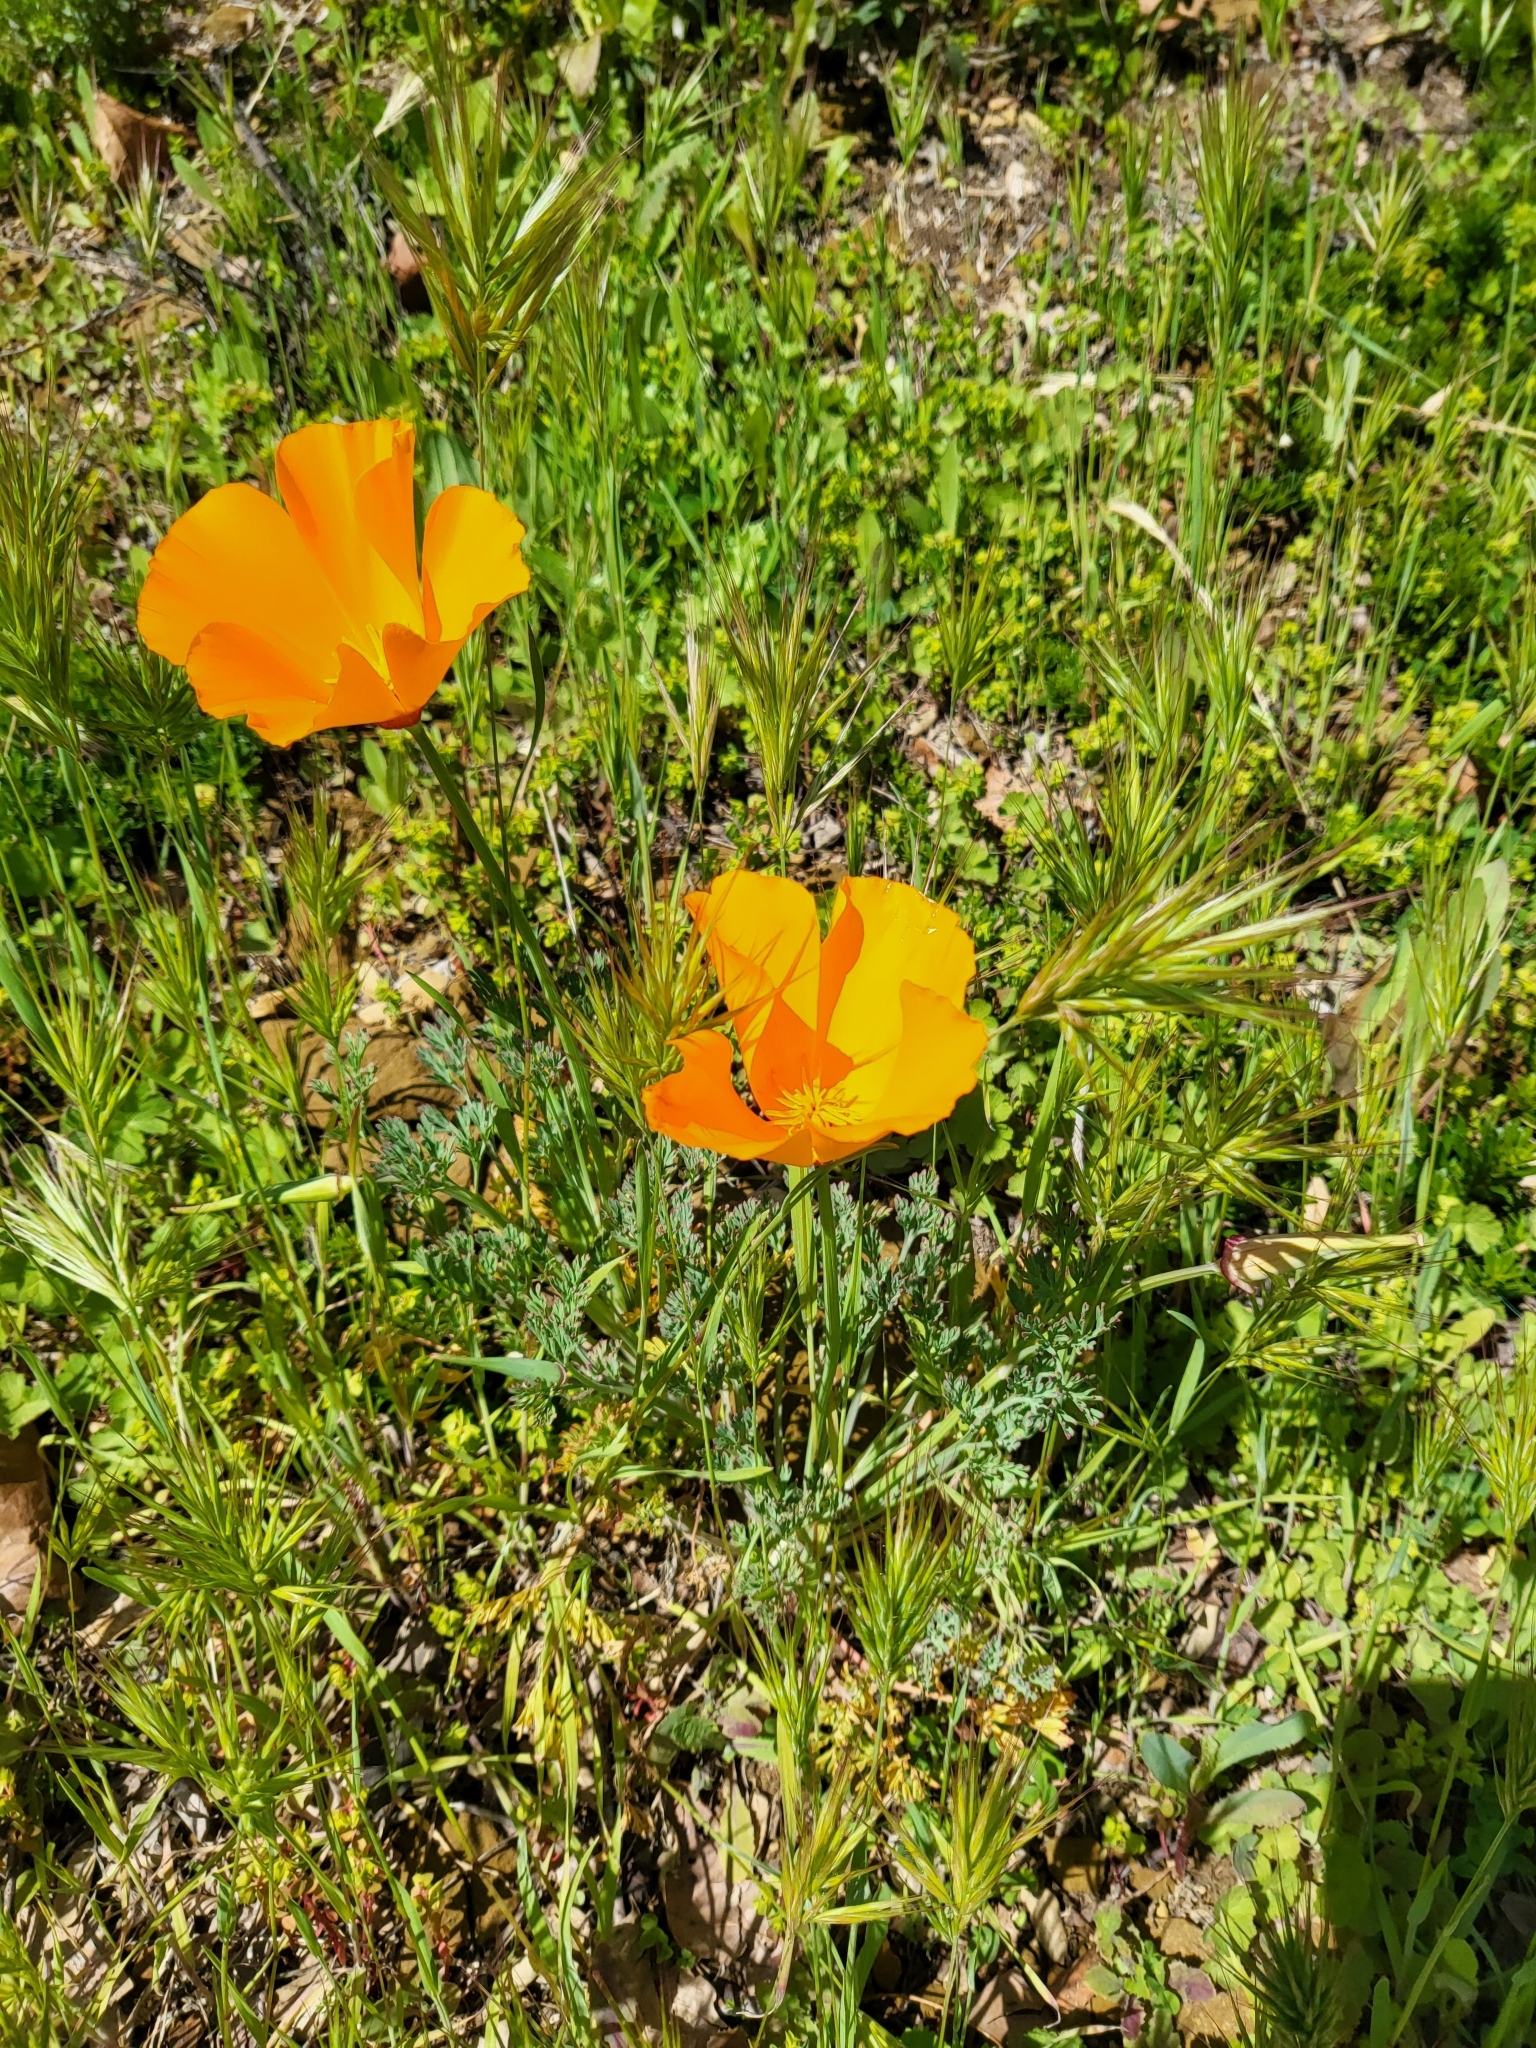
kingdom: Plantae
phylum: Tracheophyta
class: Magnoliopsida
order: Ranunculales
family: Papaveraceae
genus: Eschscholzia
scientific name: Eschscholzia californica
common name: California poppy
